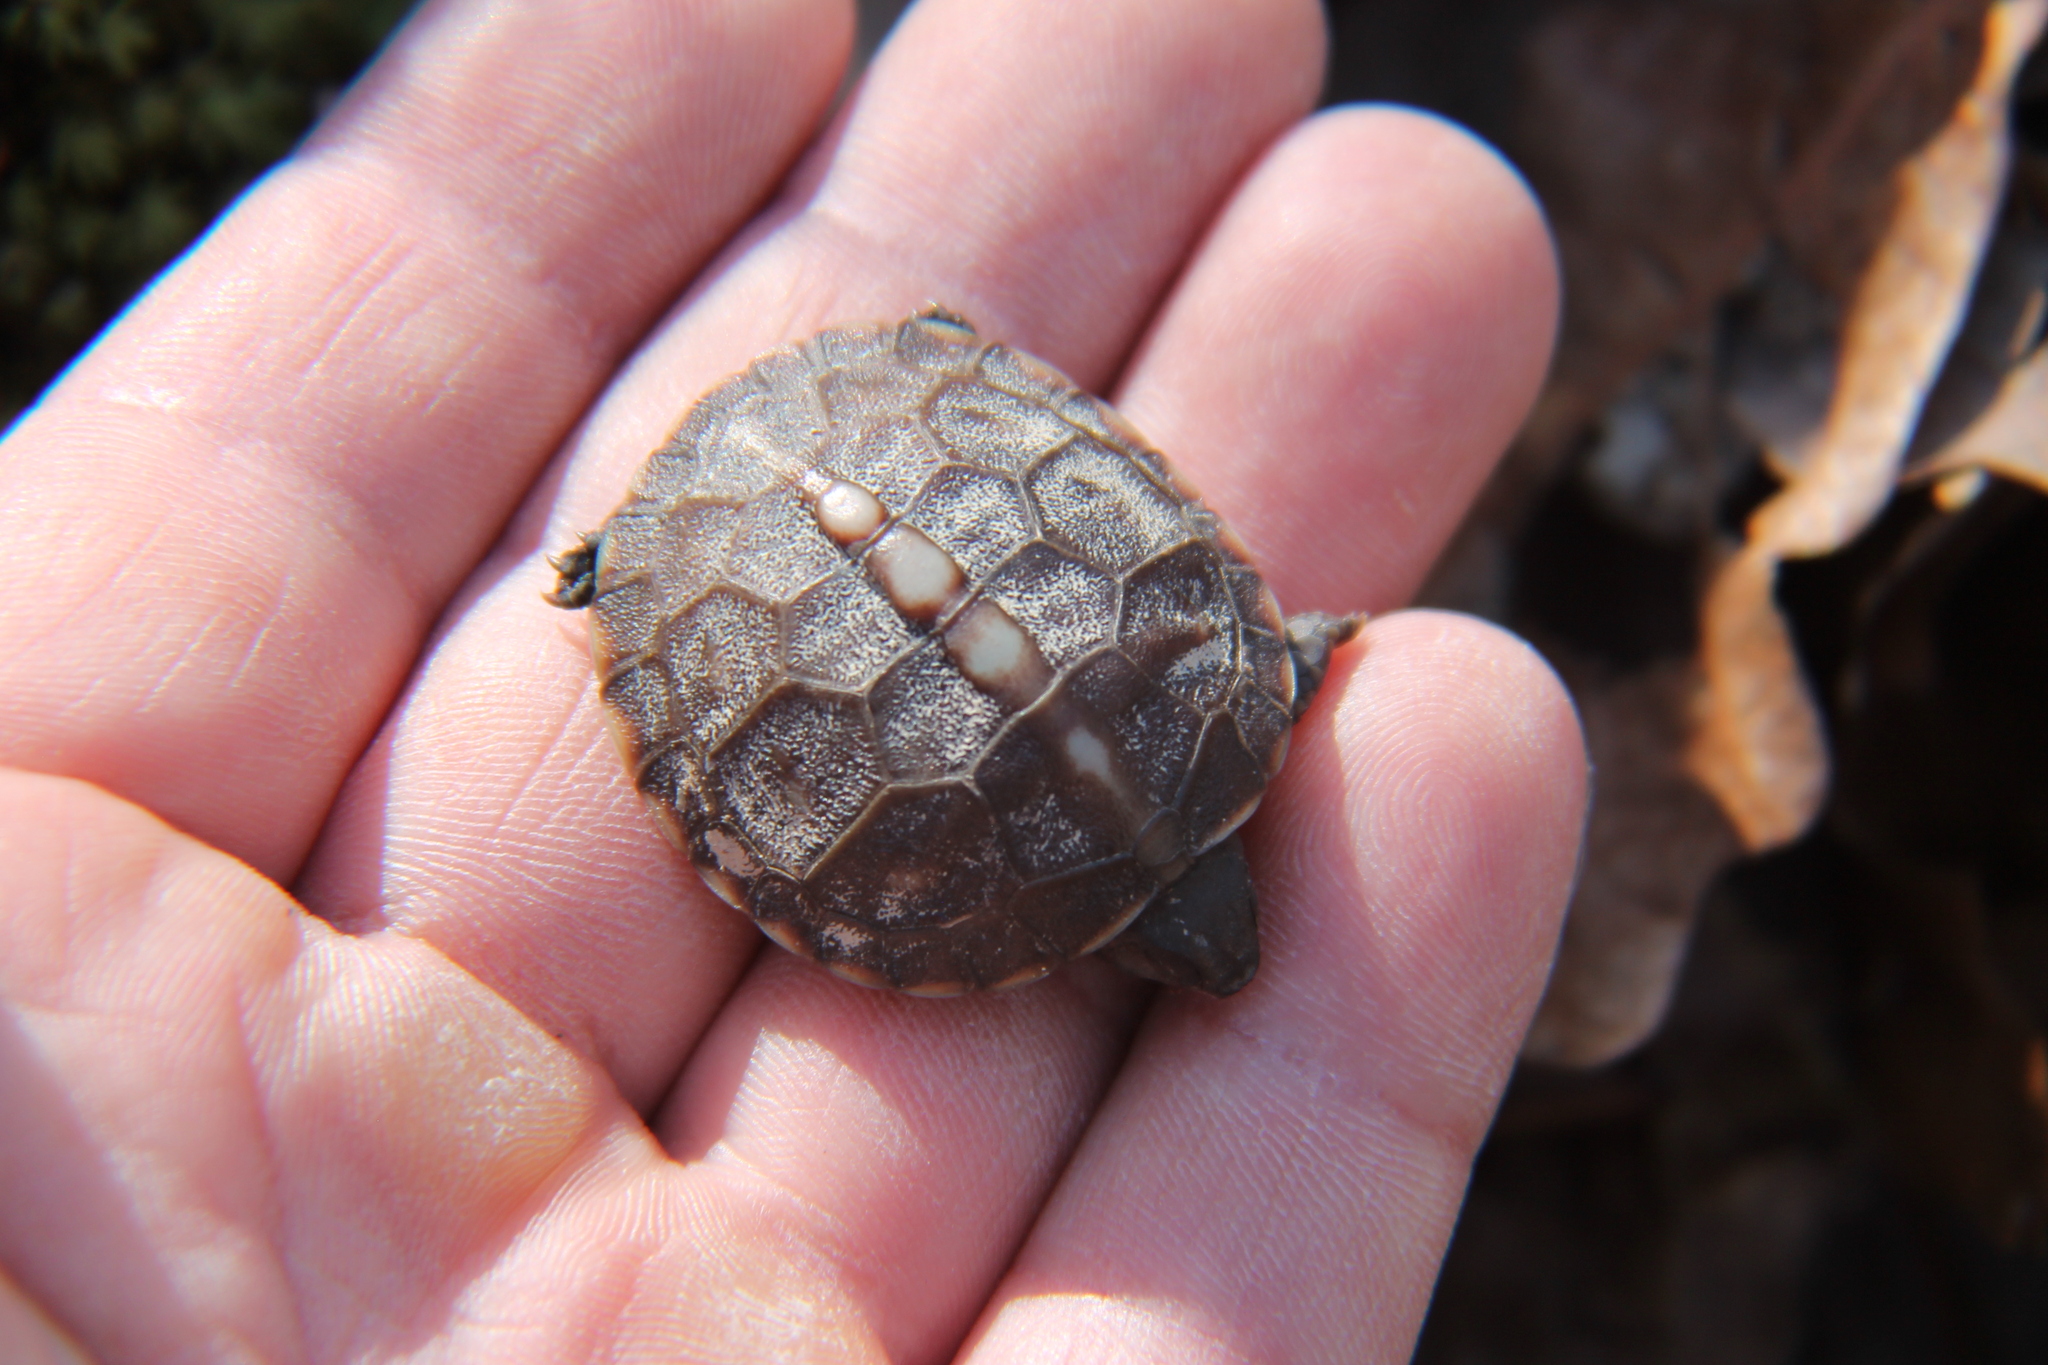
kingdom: Animalia
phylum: Chordata
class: Testudines
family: Emydidae
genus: Terrapene
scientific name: Terrapene carolina
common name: Common box turtle
